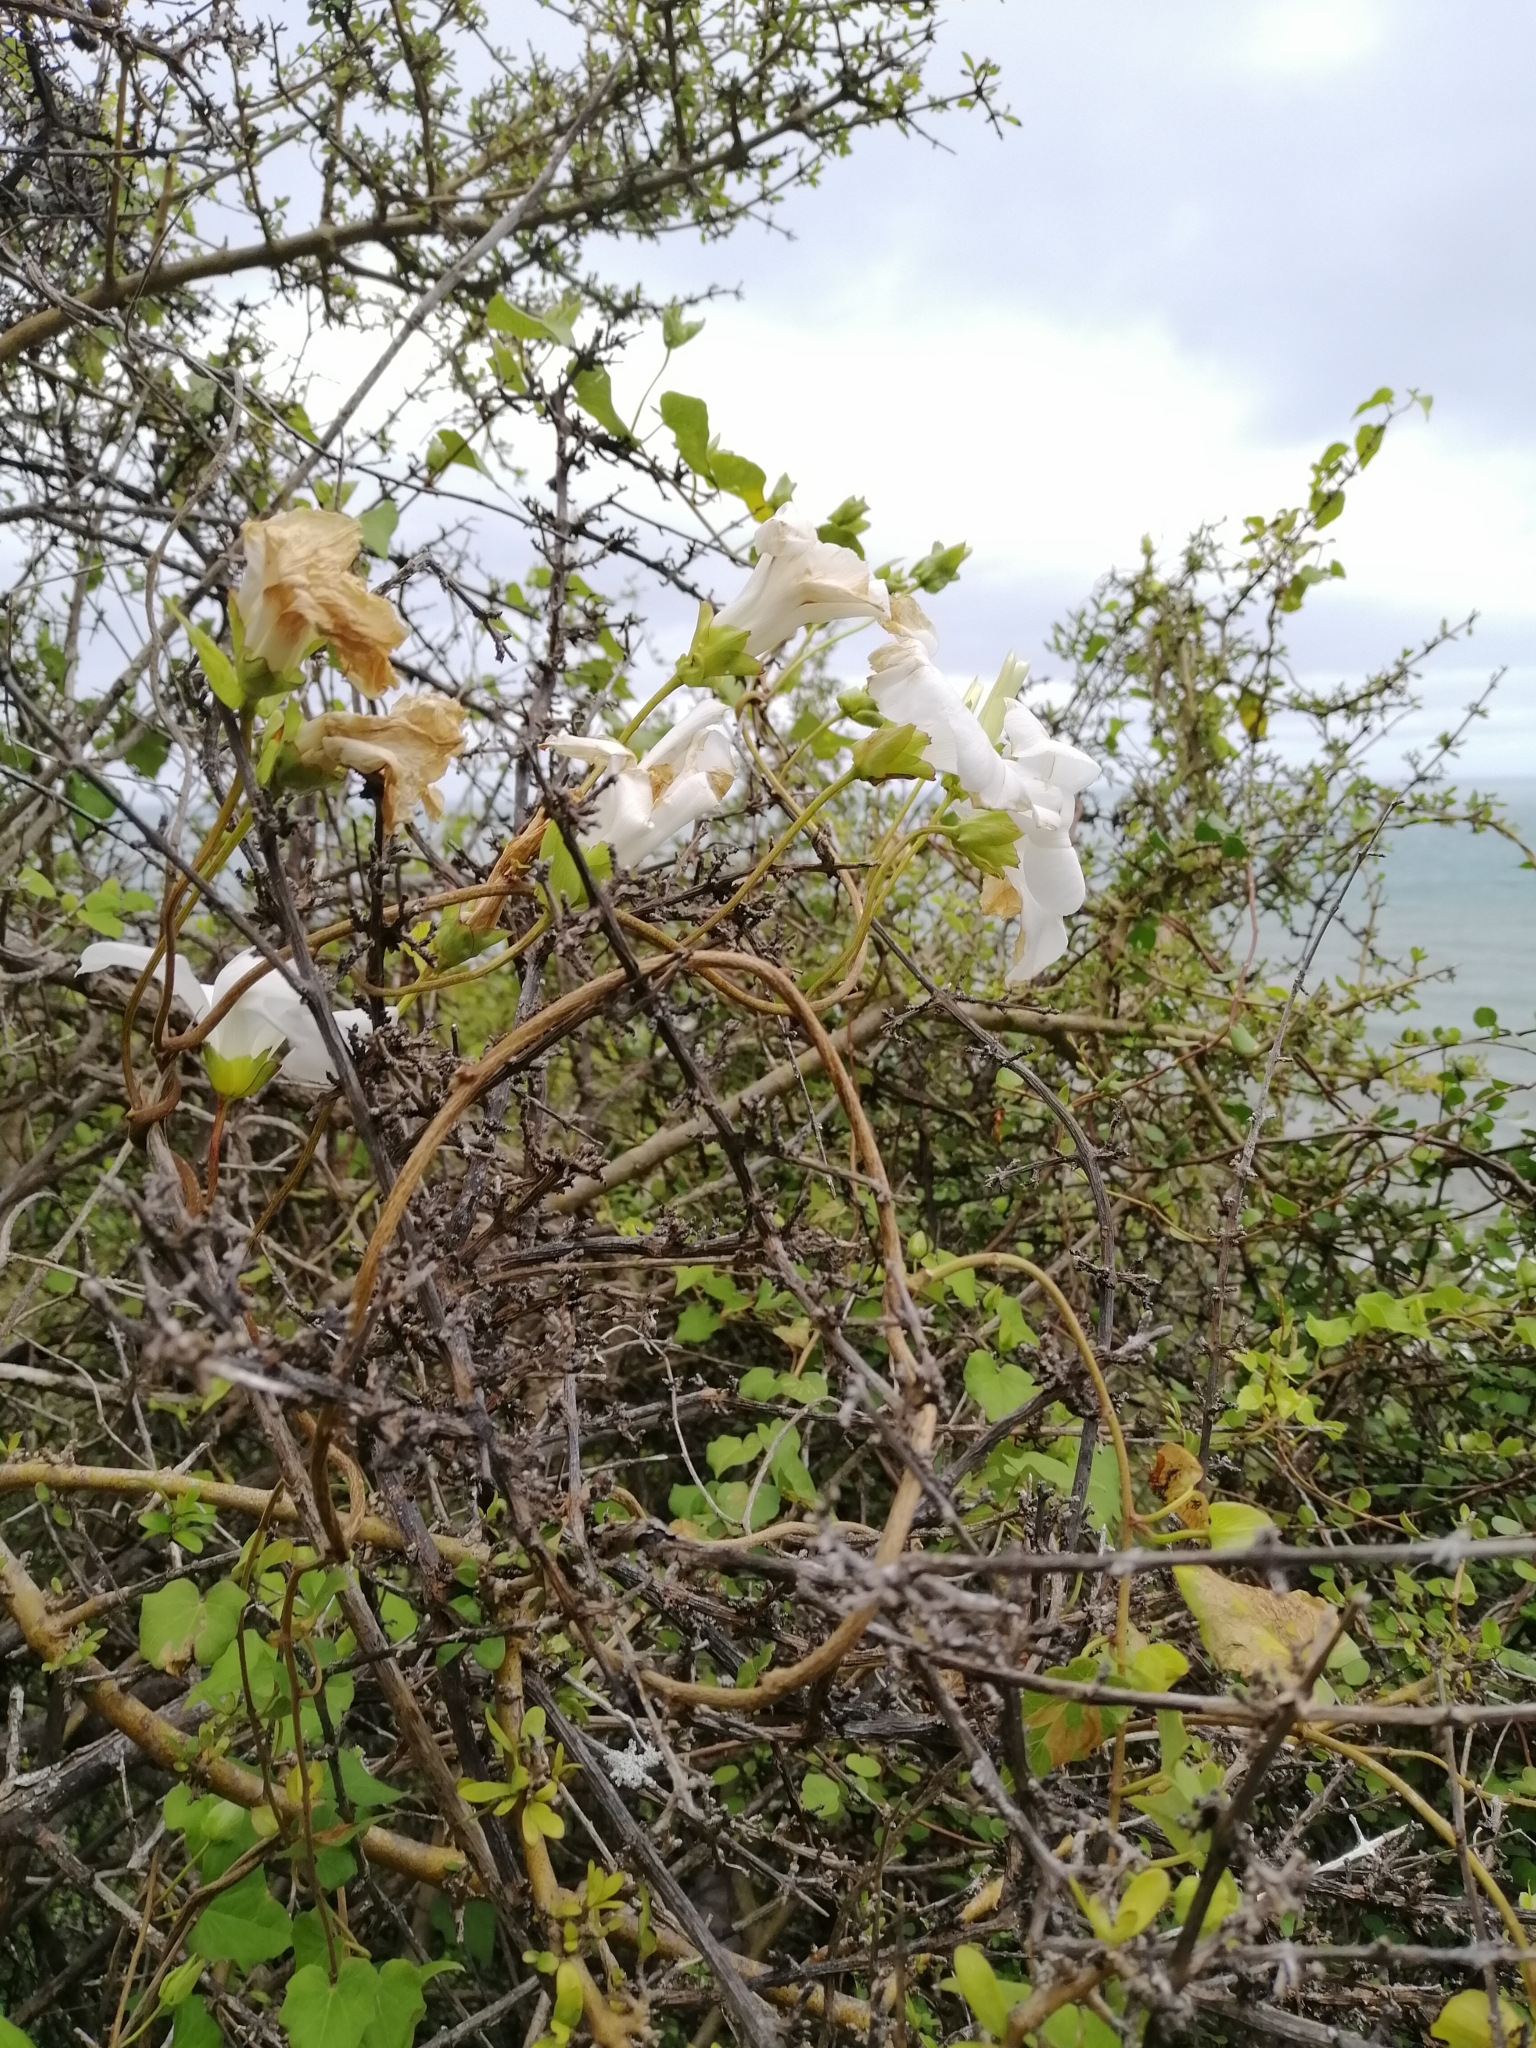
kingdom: Plantae
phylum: Tracheophyta
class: Magnoliopsida
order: Solanales
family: Convolvulaceae
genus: Calystegia
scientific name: Calystegia tuguriorum
